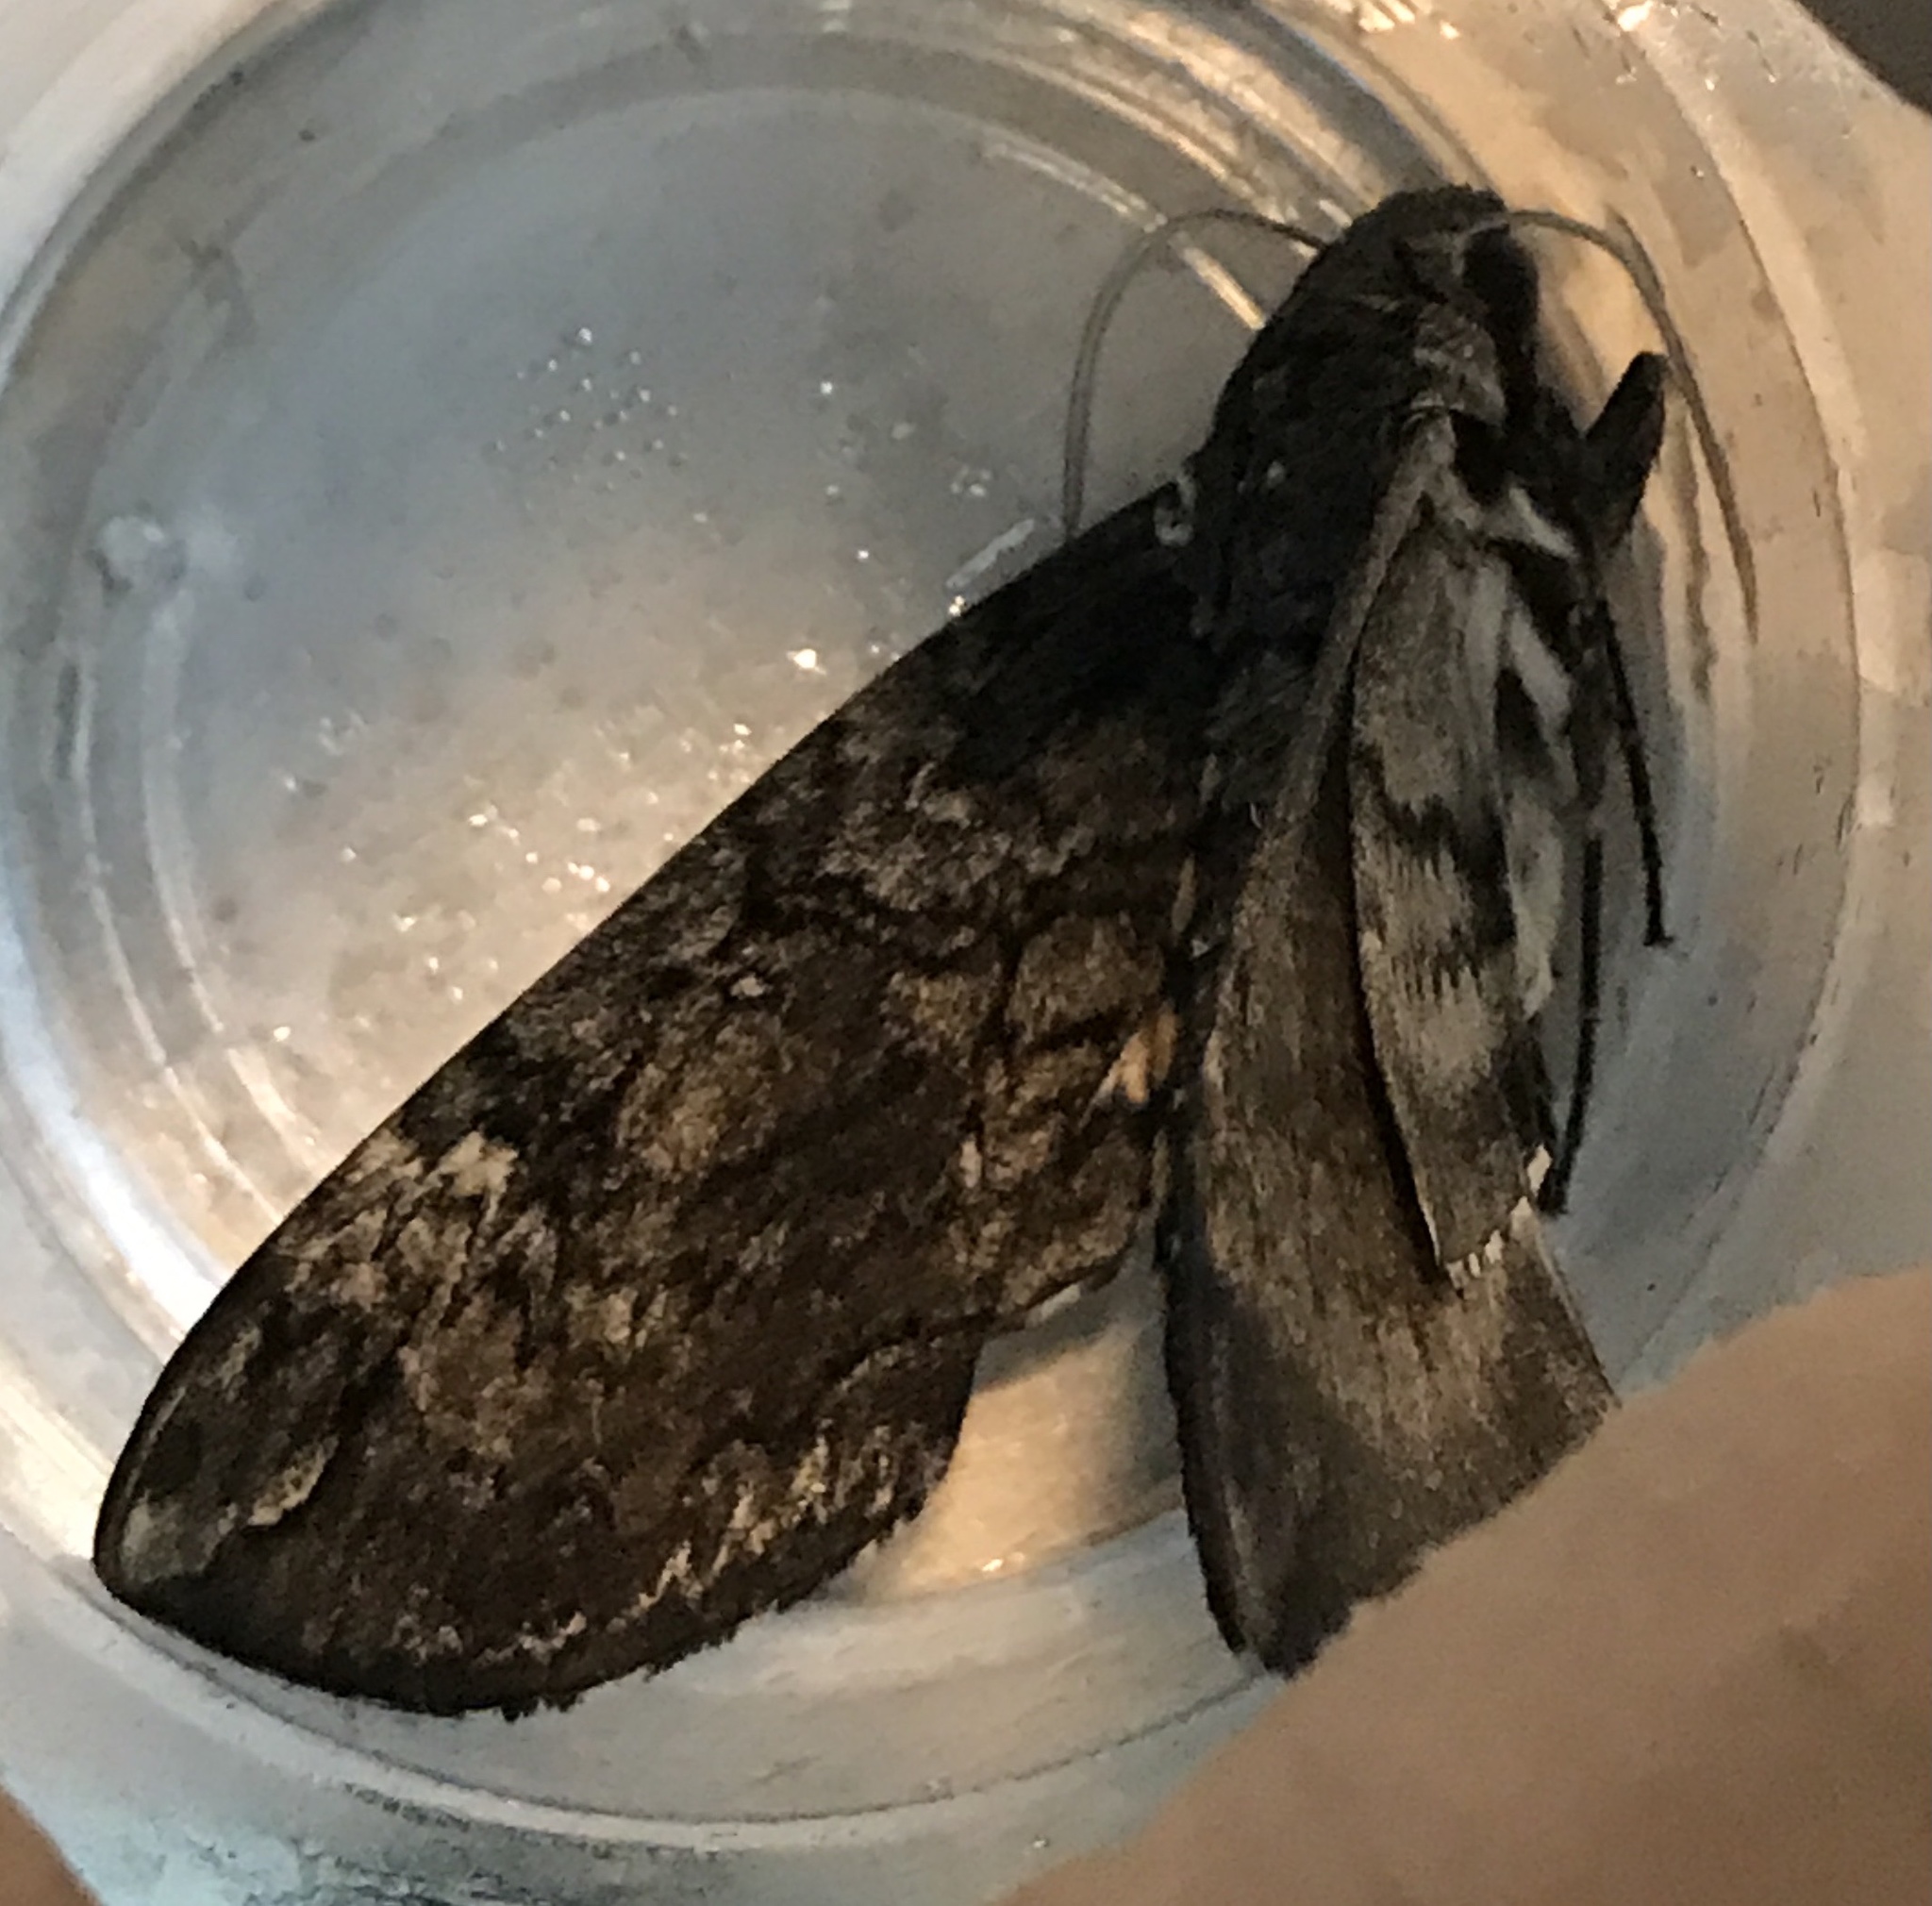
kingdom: Animalia
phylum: Arthropoda
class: Insecta
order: Lepidoptera
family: Sphingidae
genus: Manduca
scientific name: Manduca sexta
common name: Carolina sphinx
